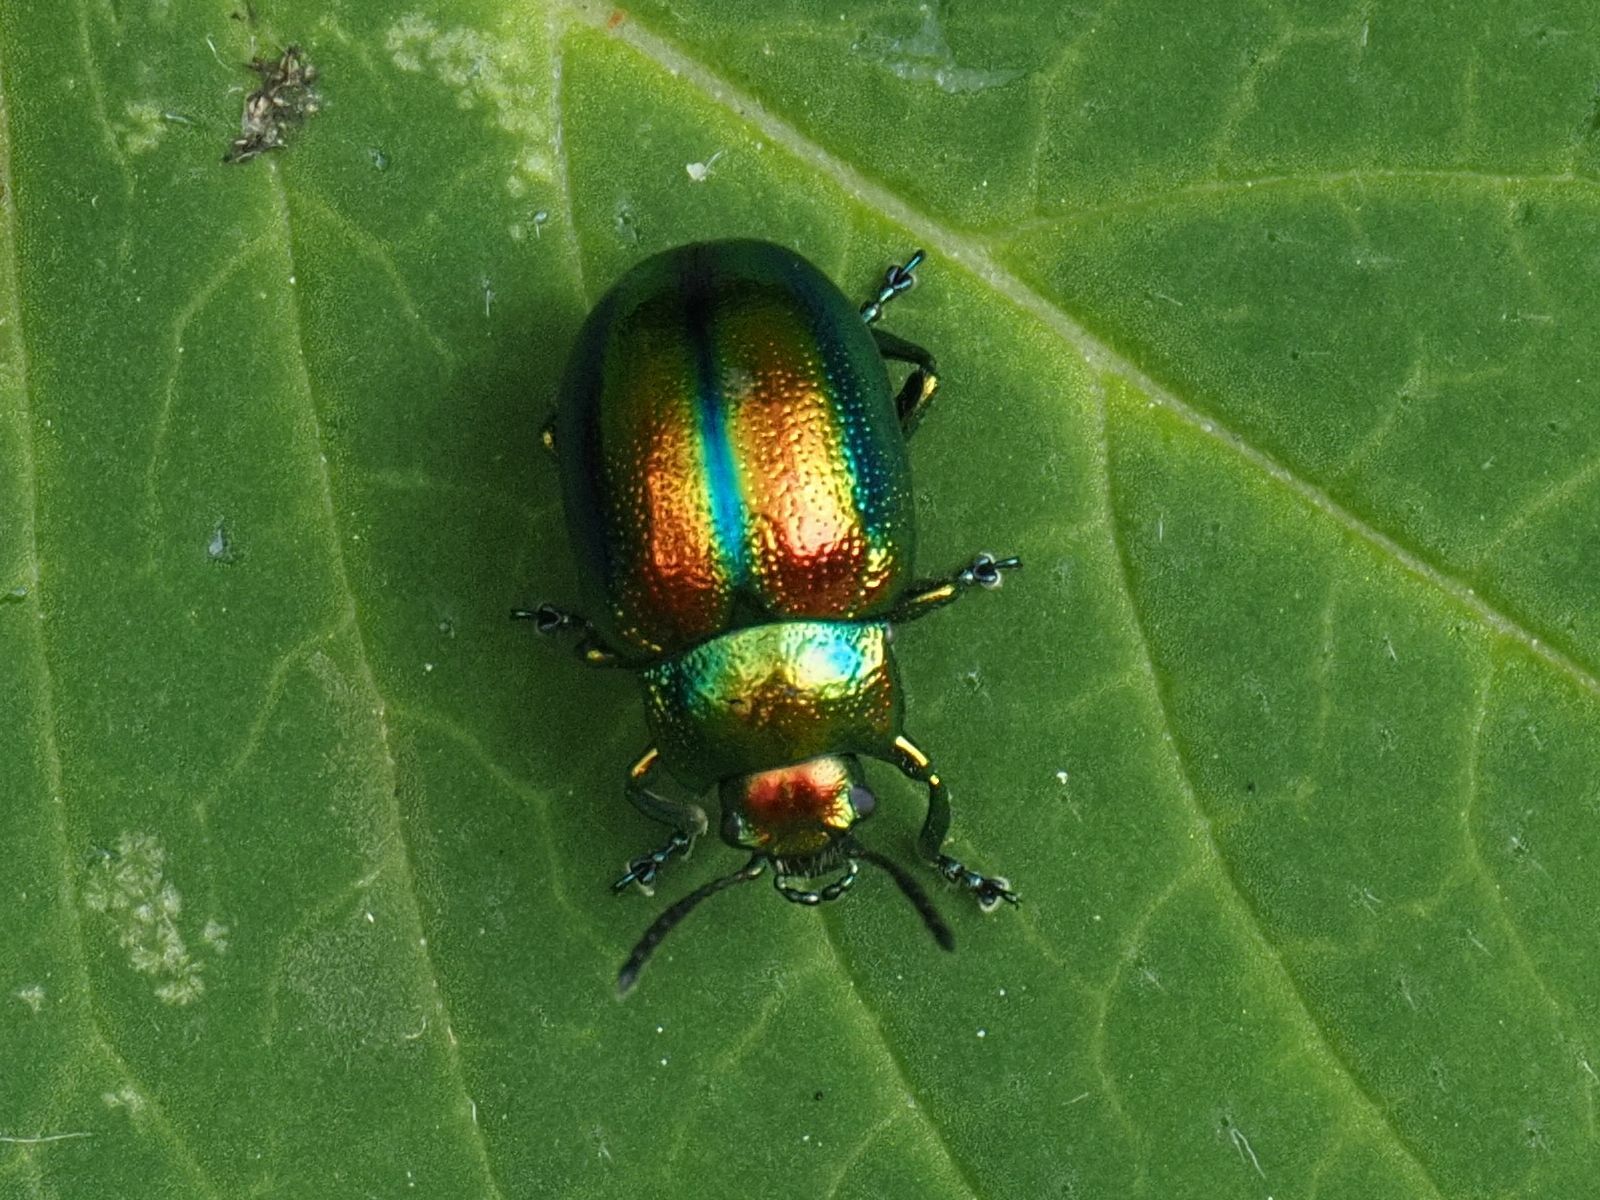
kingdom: Animalia
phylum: Arthropoda
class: Insecta
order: Coleoptera
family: Chrysomelidae
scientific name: Chrysomelidae
